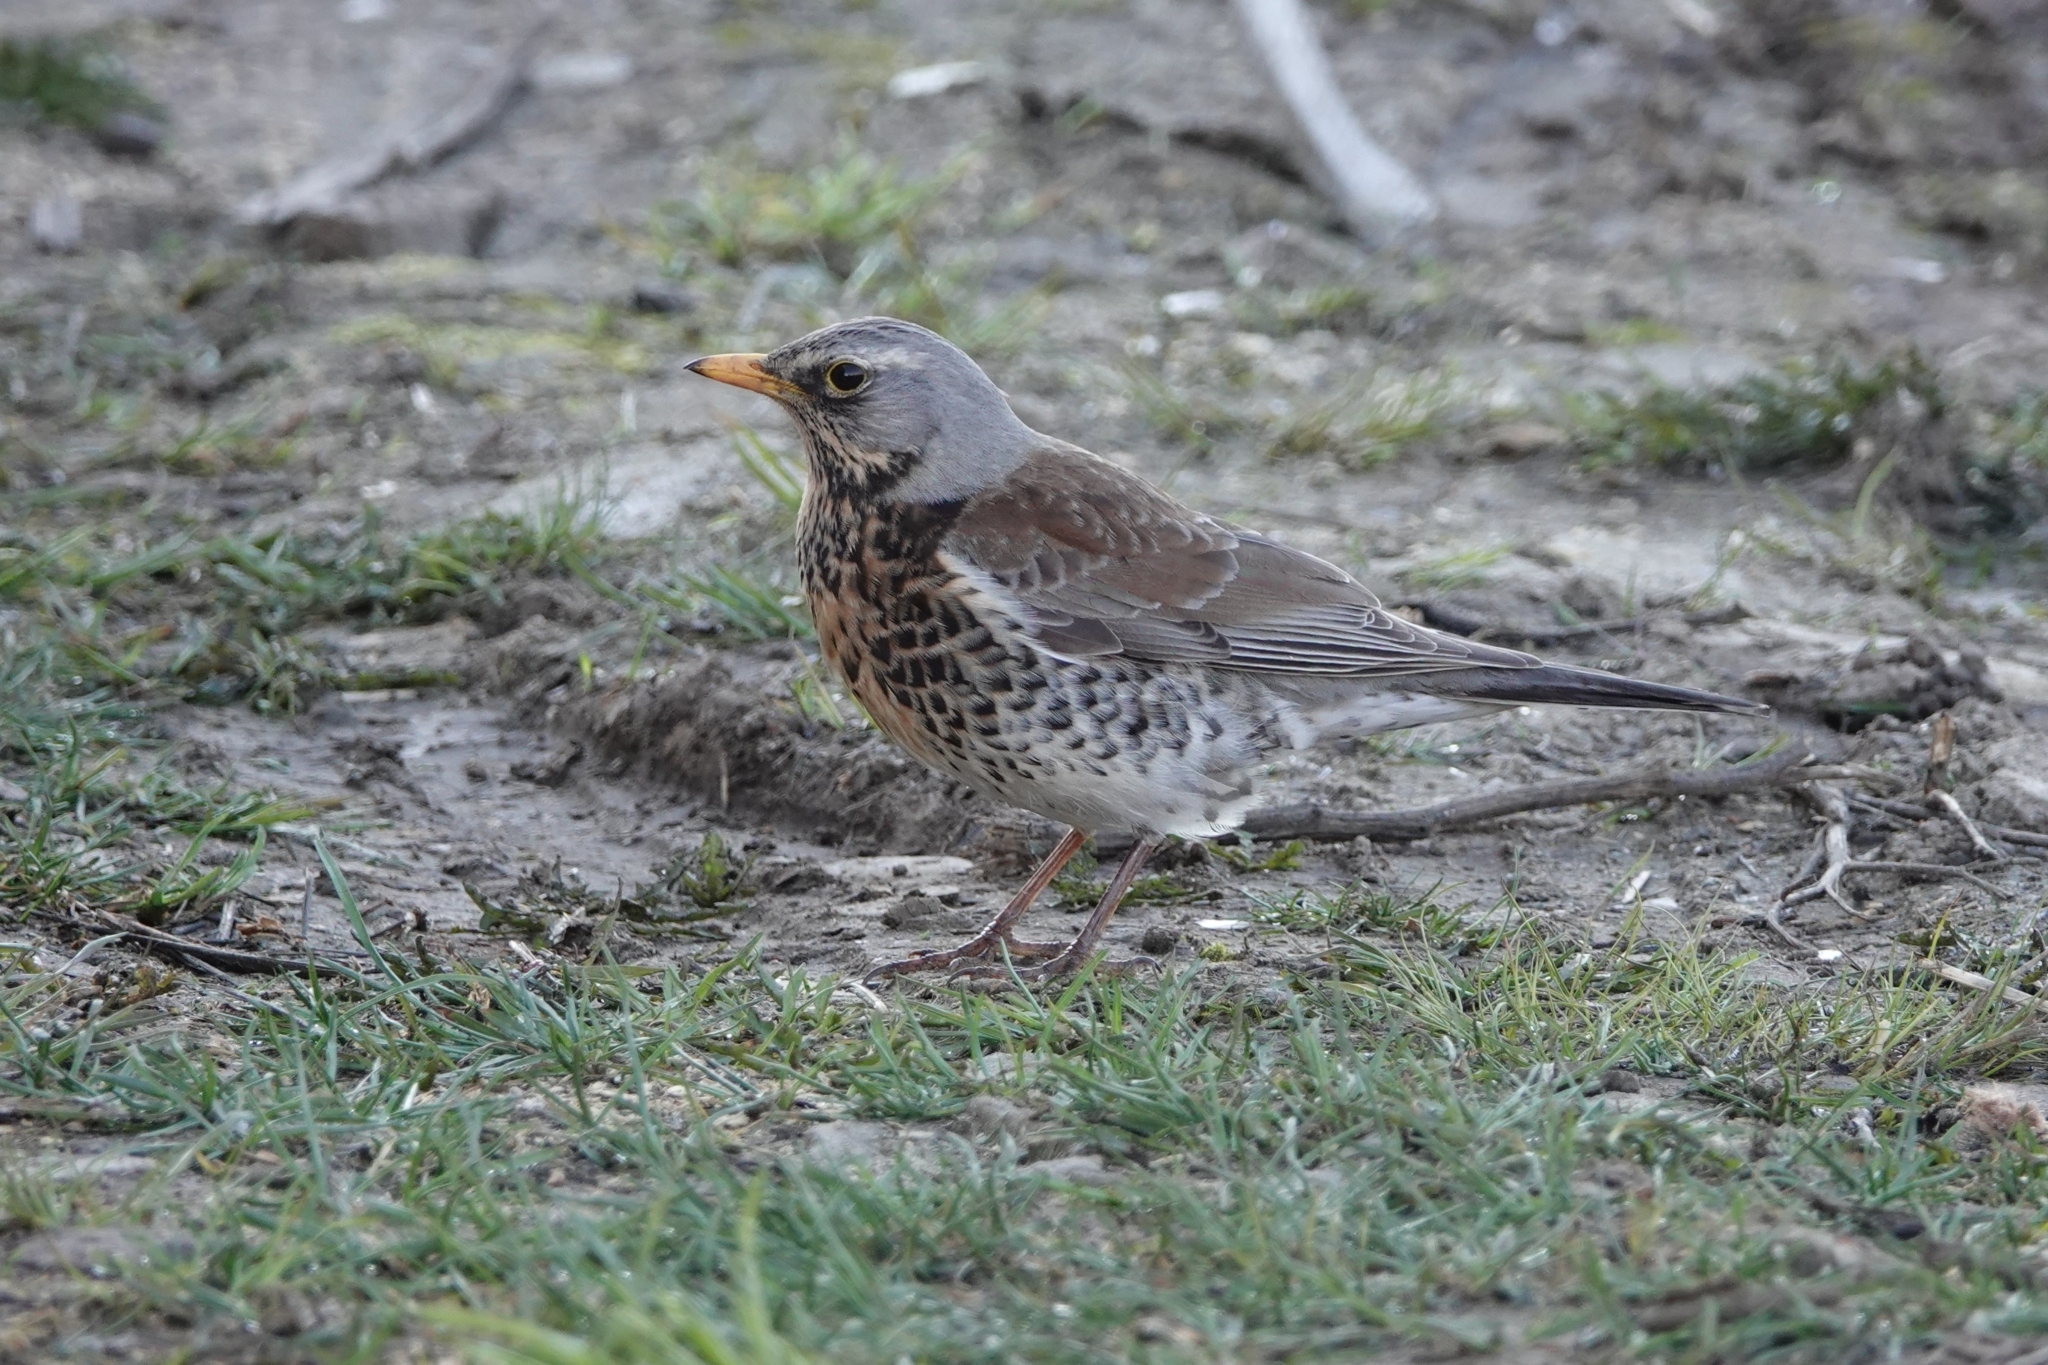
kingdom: Animalia
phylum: Chordata
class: Aves
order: Passeriformes
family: Turdidae
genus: Turdus
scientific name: Turdus pilaris
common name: Fieldfare
